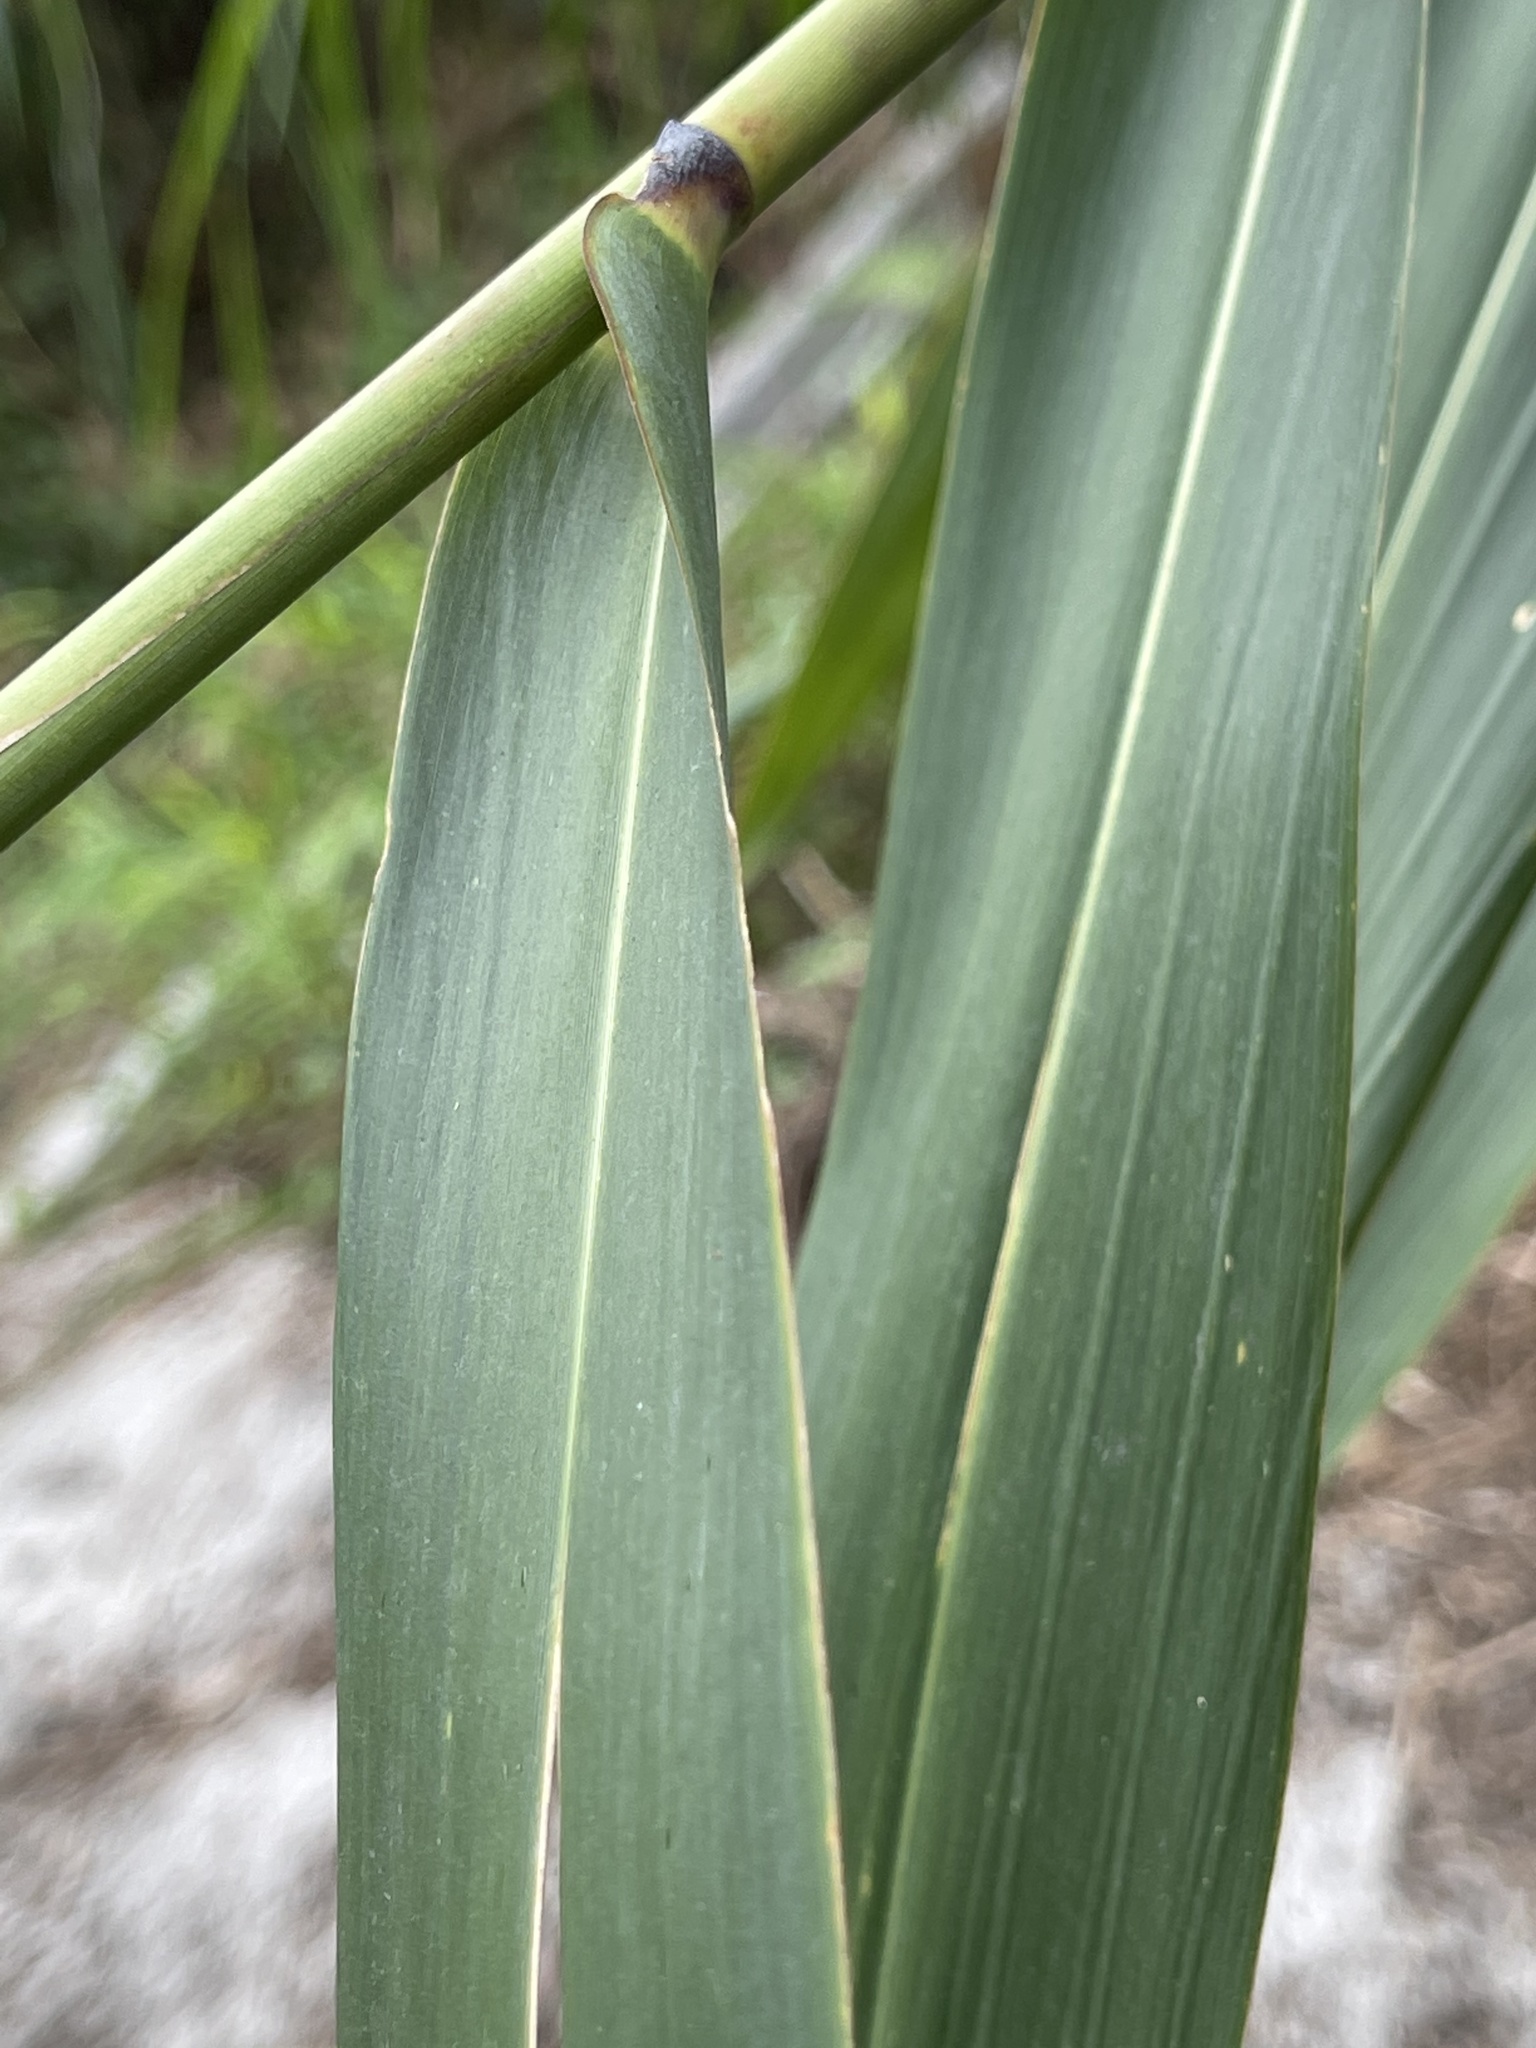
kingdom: Plantae
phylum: Tracheophyta
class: Liliopsida
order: Poales
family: Poaceae
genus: Thysanolaena
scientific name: Thysanolaena latifolia
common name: Tiger grass
